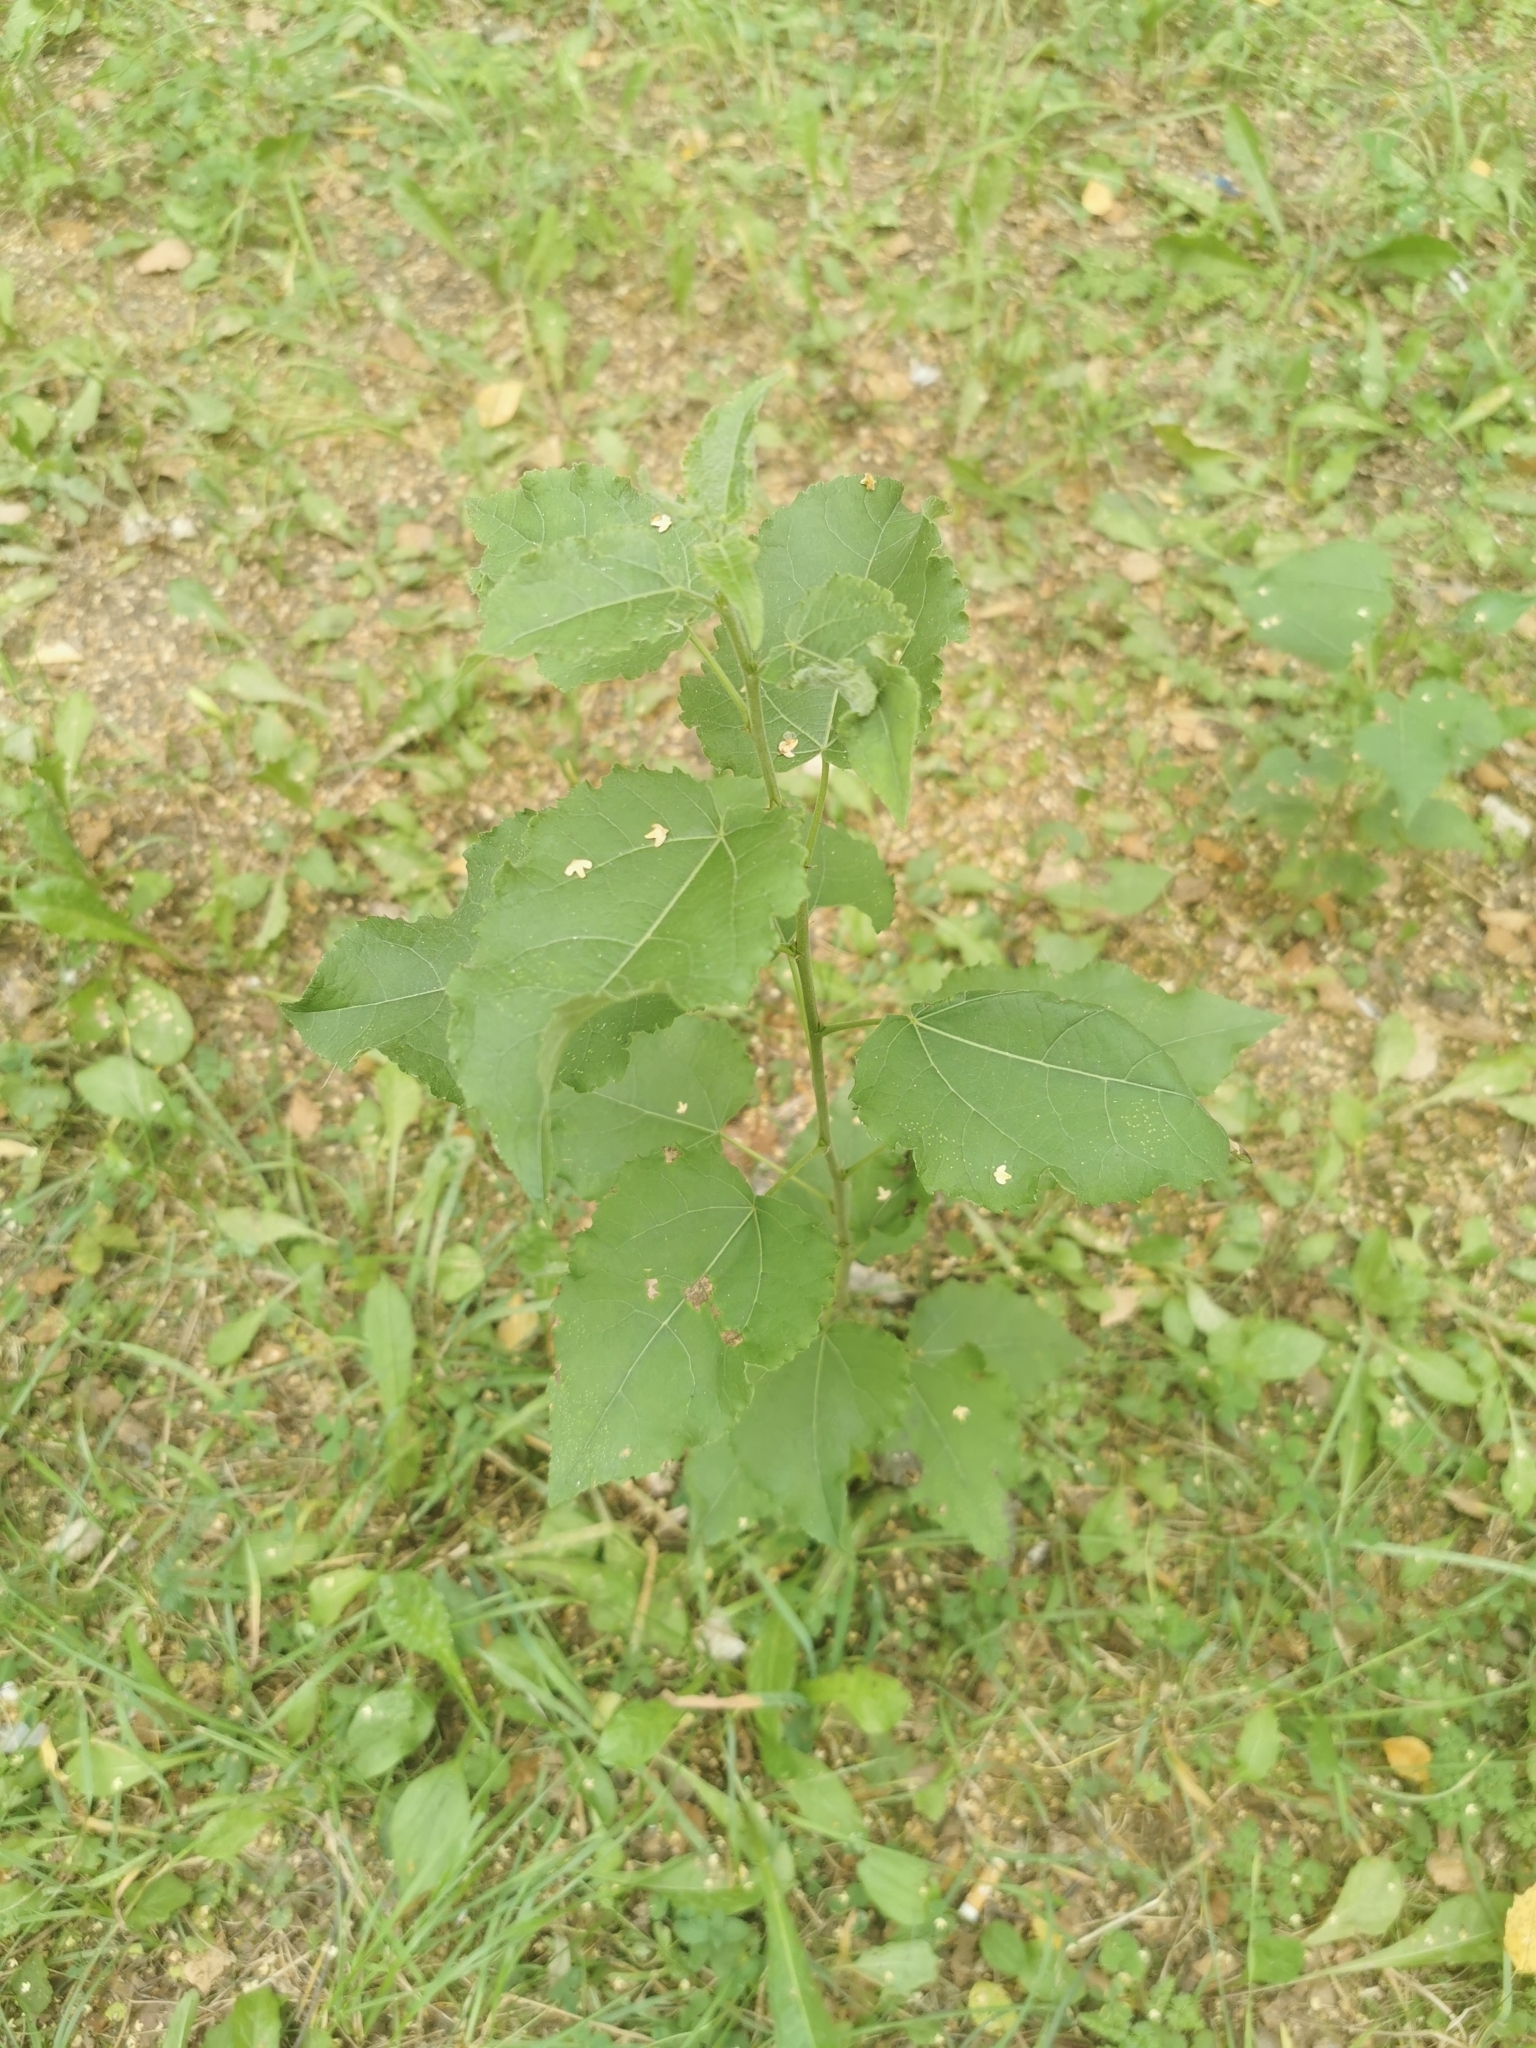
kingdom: Plantae
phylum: Tracheophyta
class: Magnoliopsida
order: Malpighiales
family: Salicaceae
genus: Populus
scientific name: Populus tremula
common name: European aspen
